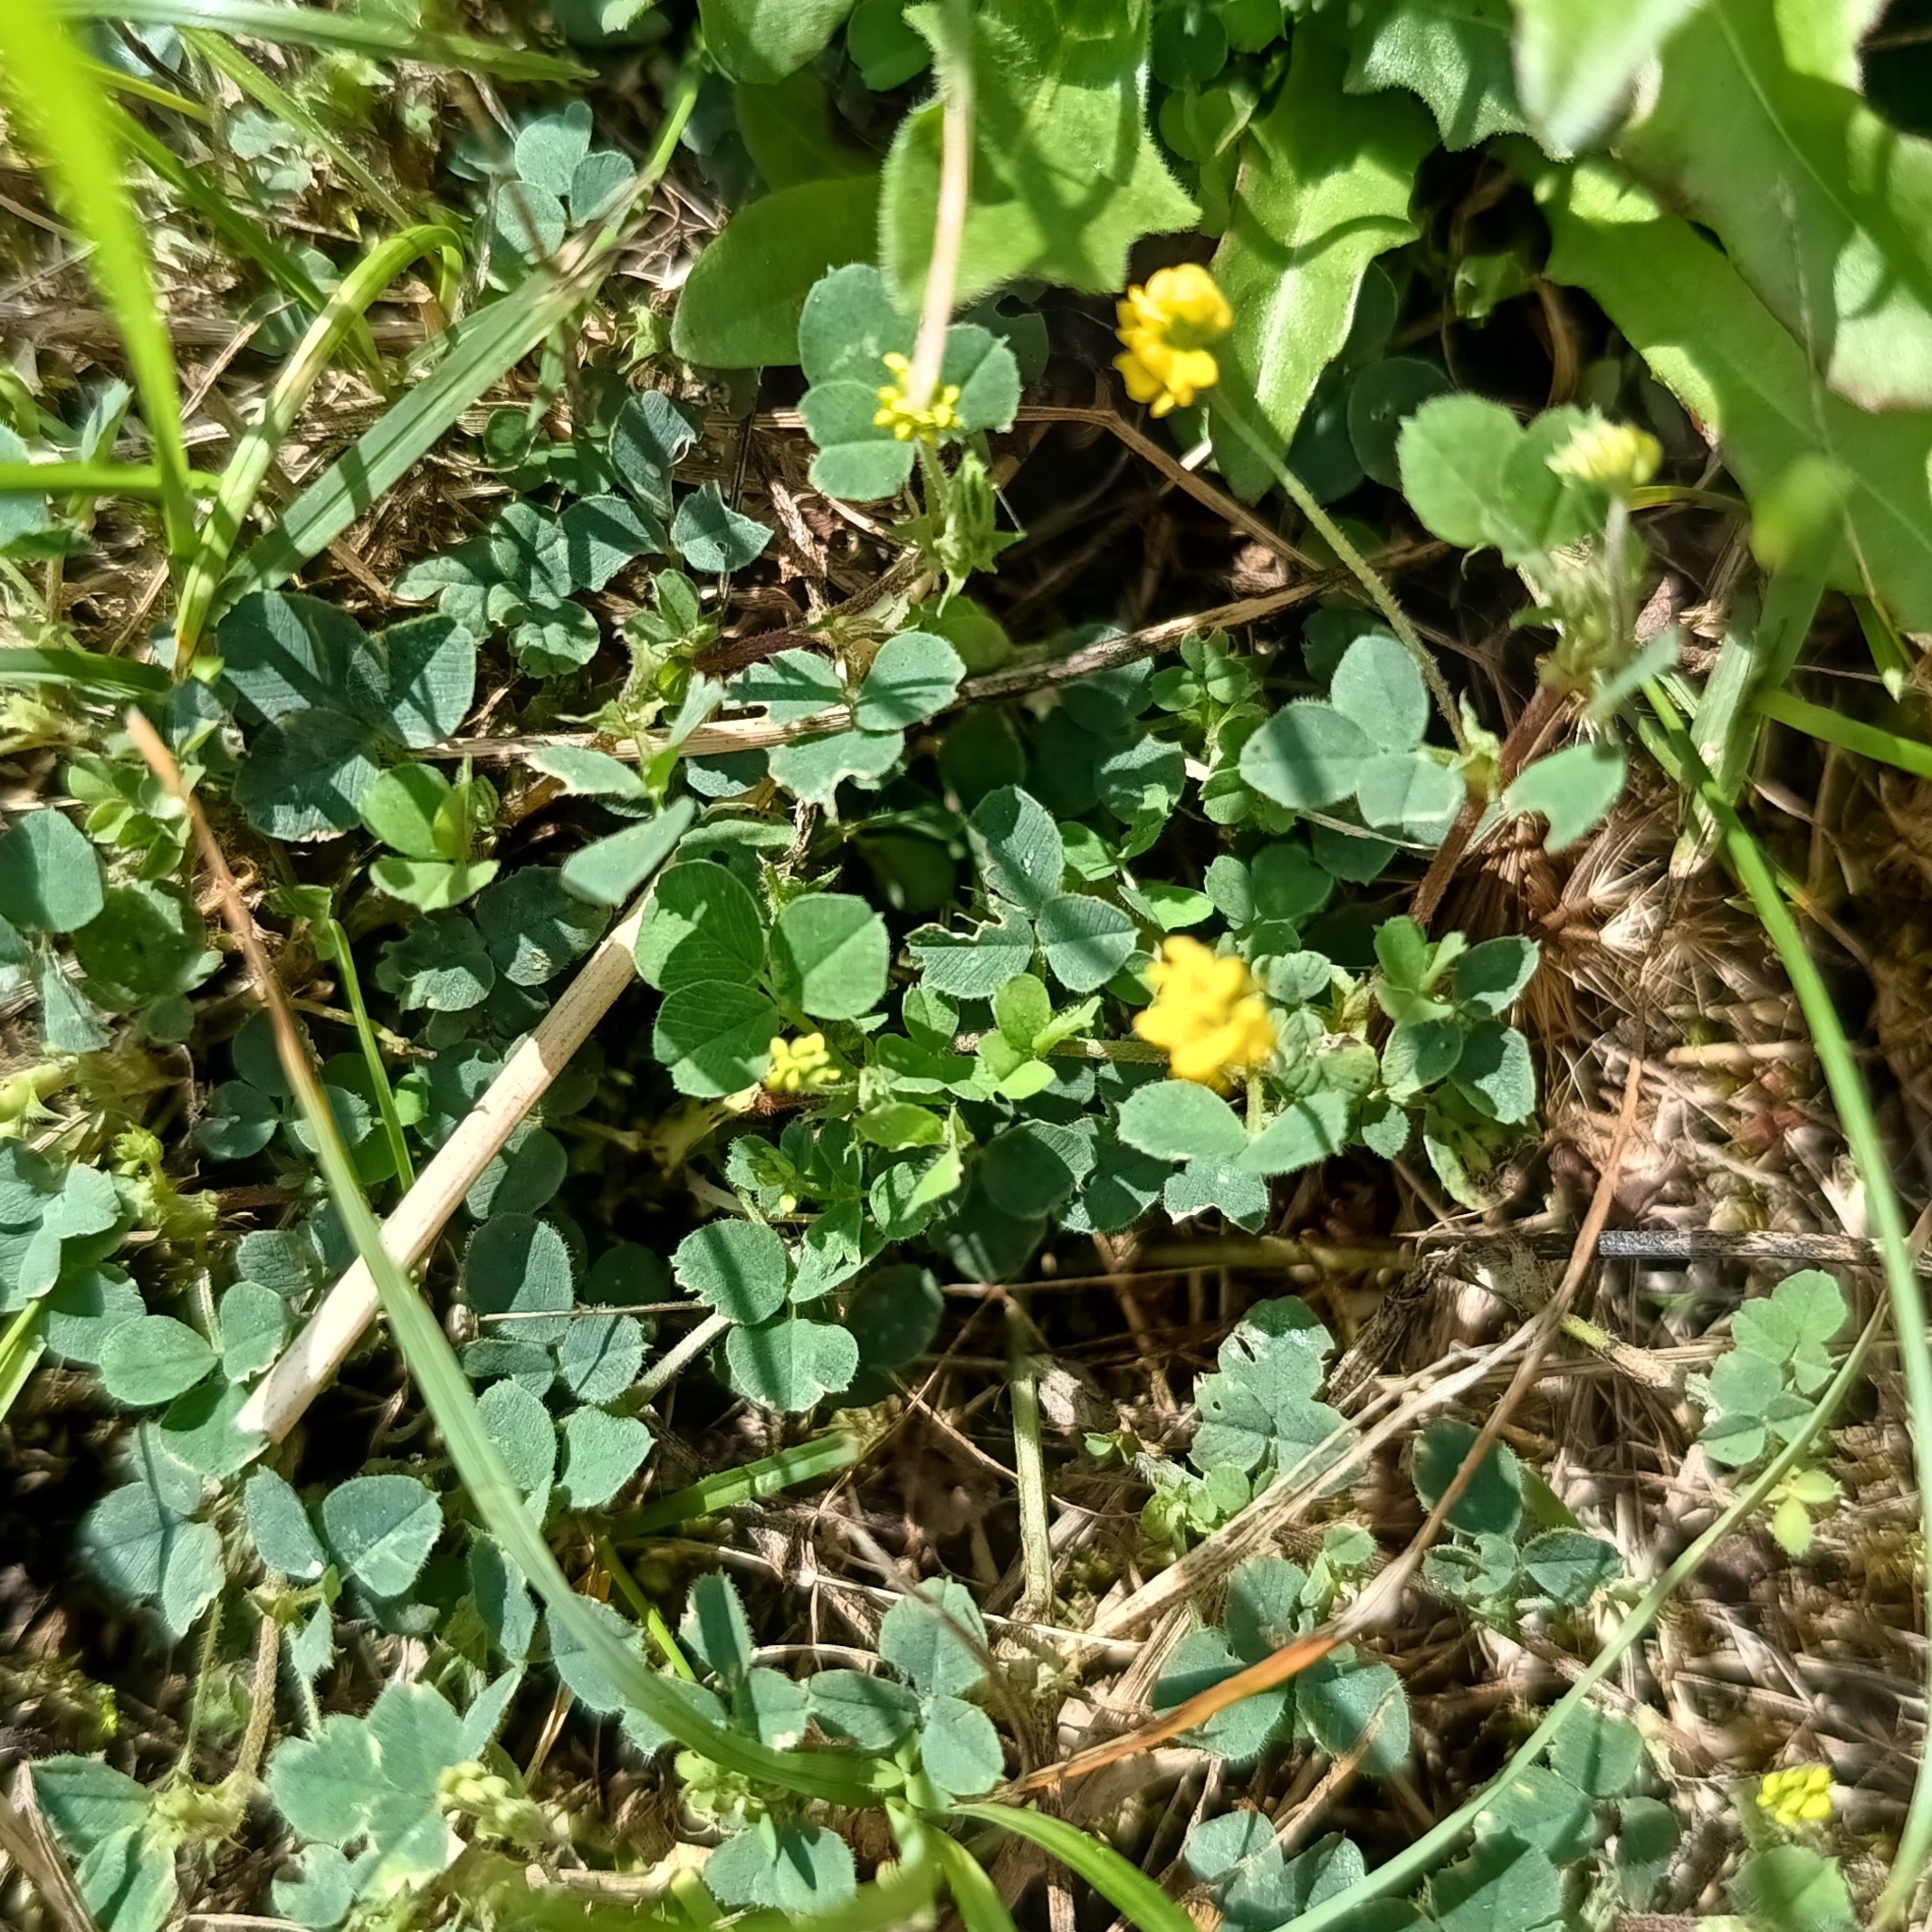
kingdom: Plantae
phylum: Tracheophyta
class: Magnoliopsida
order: Fabales
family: Fabaceae
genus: Medicago
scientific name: Medicago lupulina
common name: Black medick
